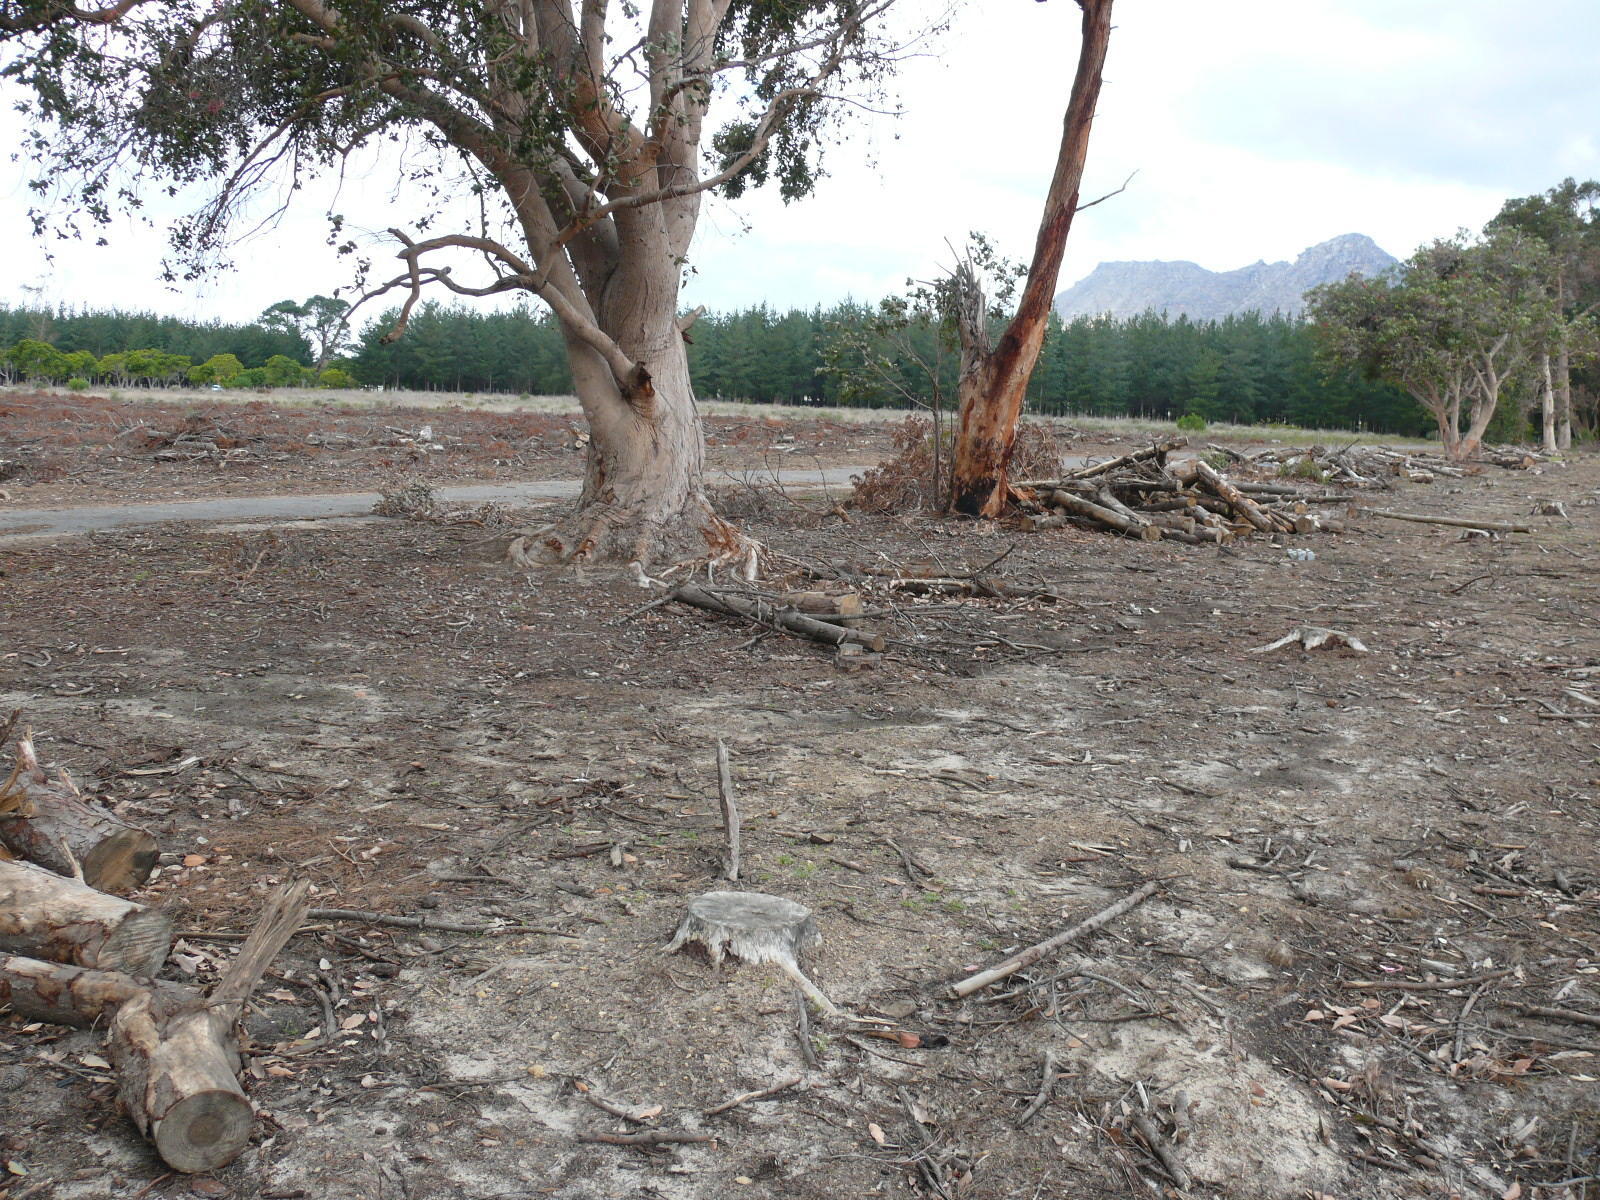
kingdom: Plantae
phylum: Tracheophyta
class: Magnoliopsida
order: Myrtales
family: Myrtaceae
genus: Corymbia
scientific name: Corymbia ficifolia
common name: Redflower gum
